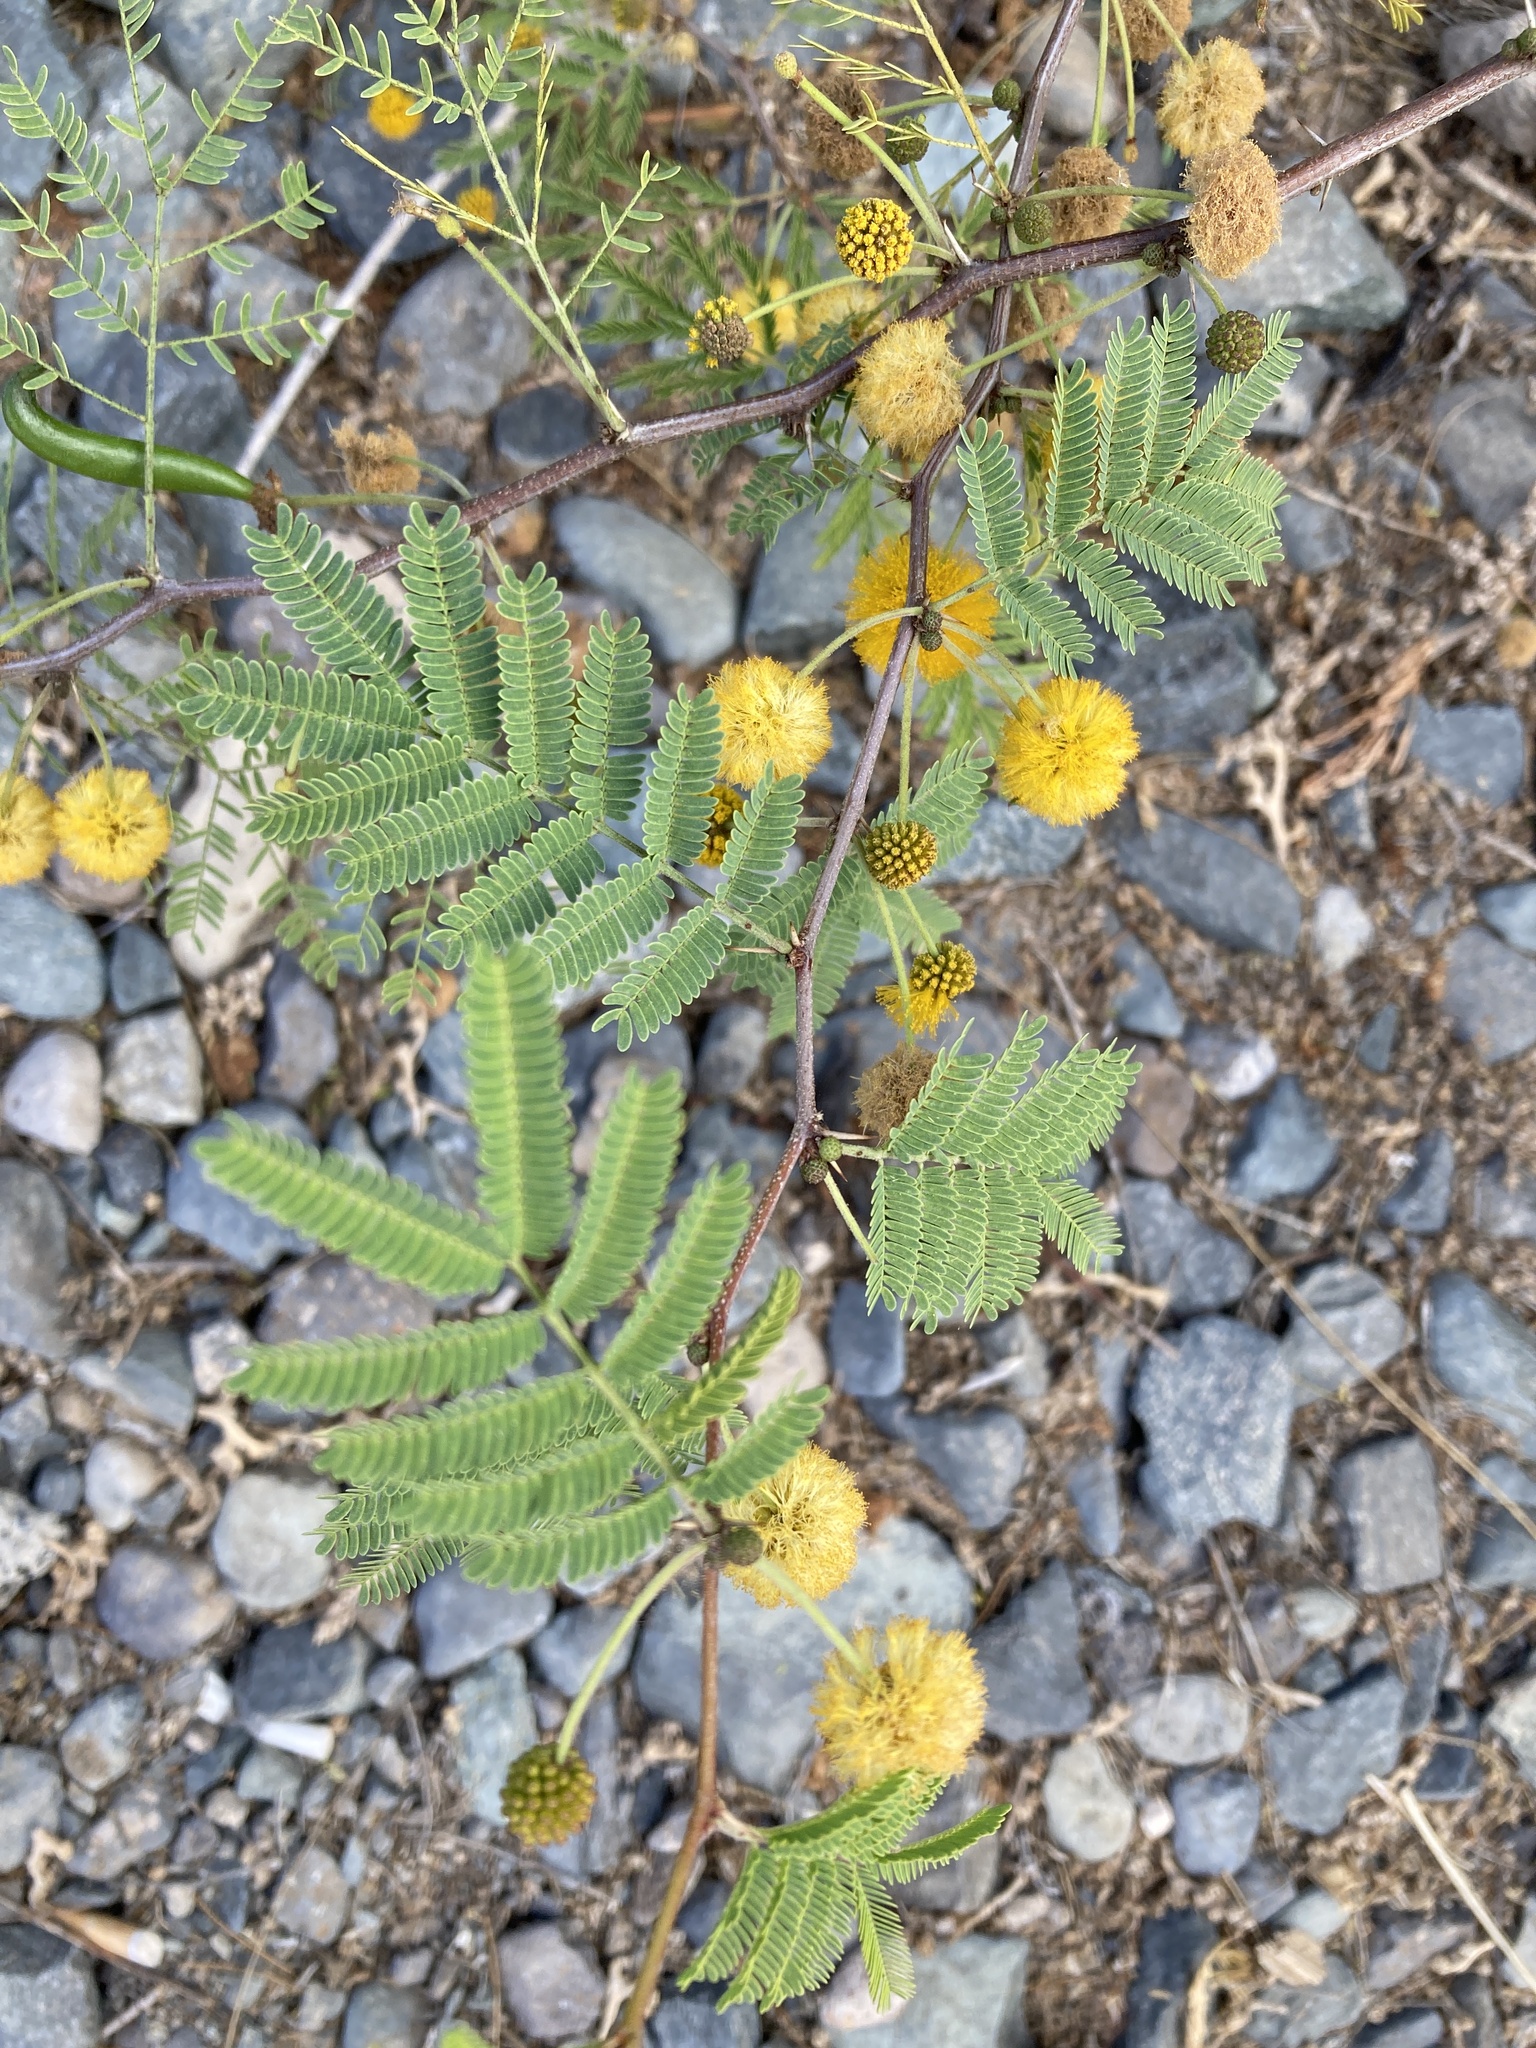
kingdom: Plantae
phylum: Tracheophyta
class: Magnoliopsida
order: Fabales
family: Fabaceae
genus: Vachellia
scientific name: Vachellia farnesiana
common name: Sweet acacia
